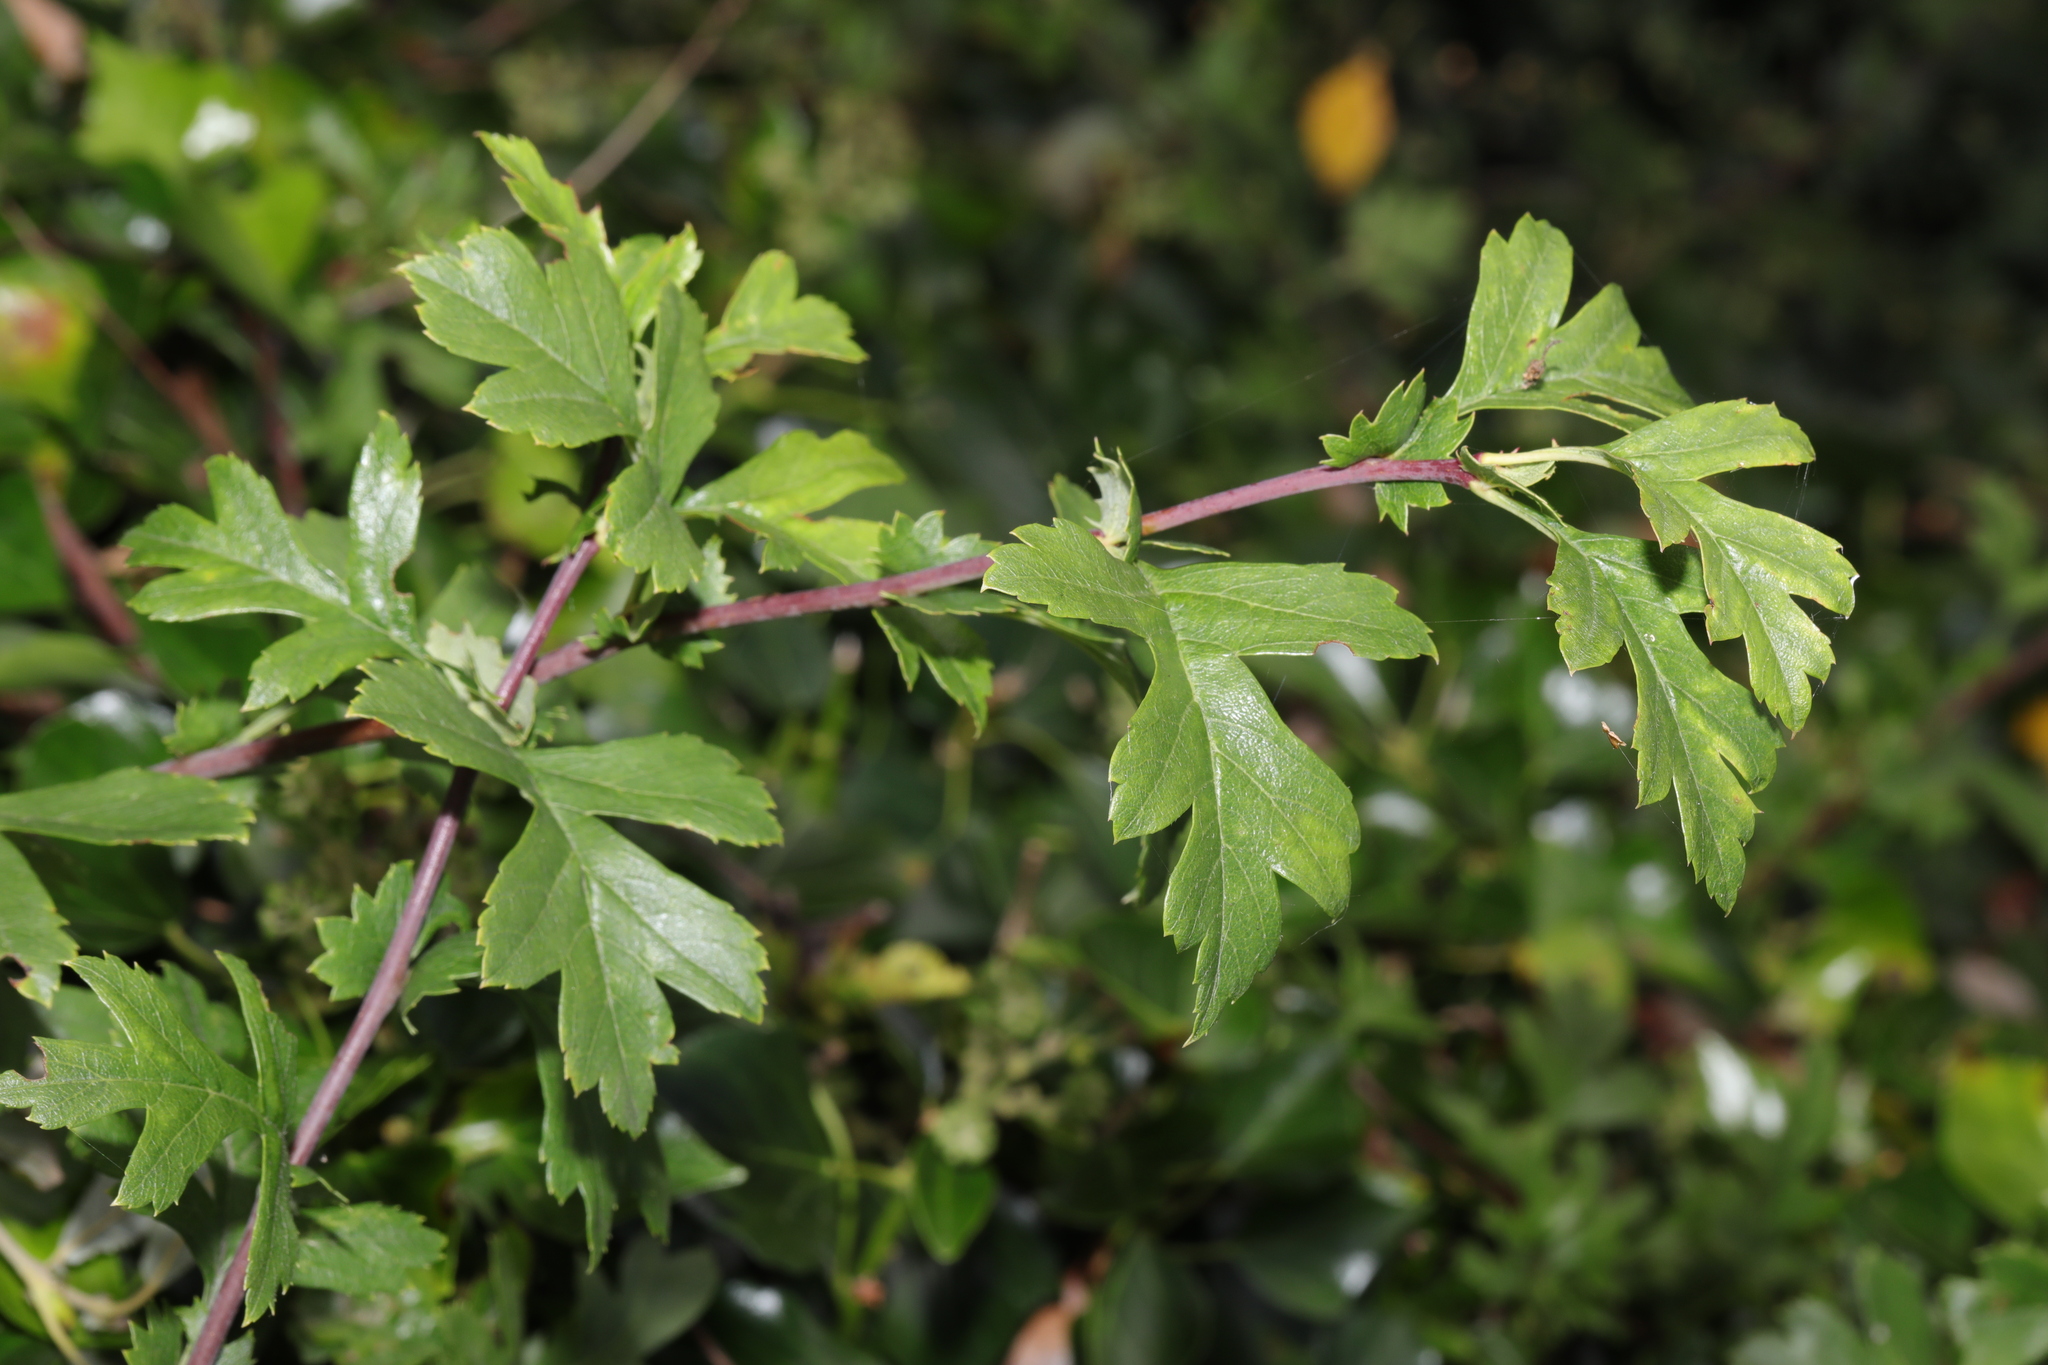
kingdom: Plantae
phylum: Tracheophyta
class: Magnoliopsida
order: Rosales
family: Rosaceae
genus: Crataegus
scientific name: Crataegus monogyna
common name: Hawthorn
